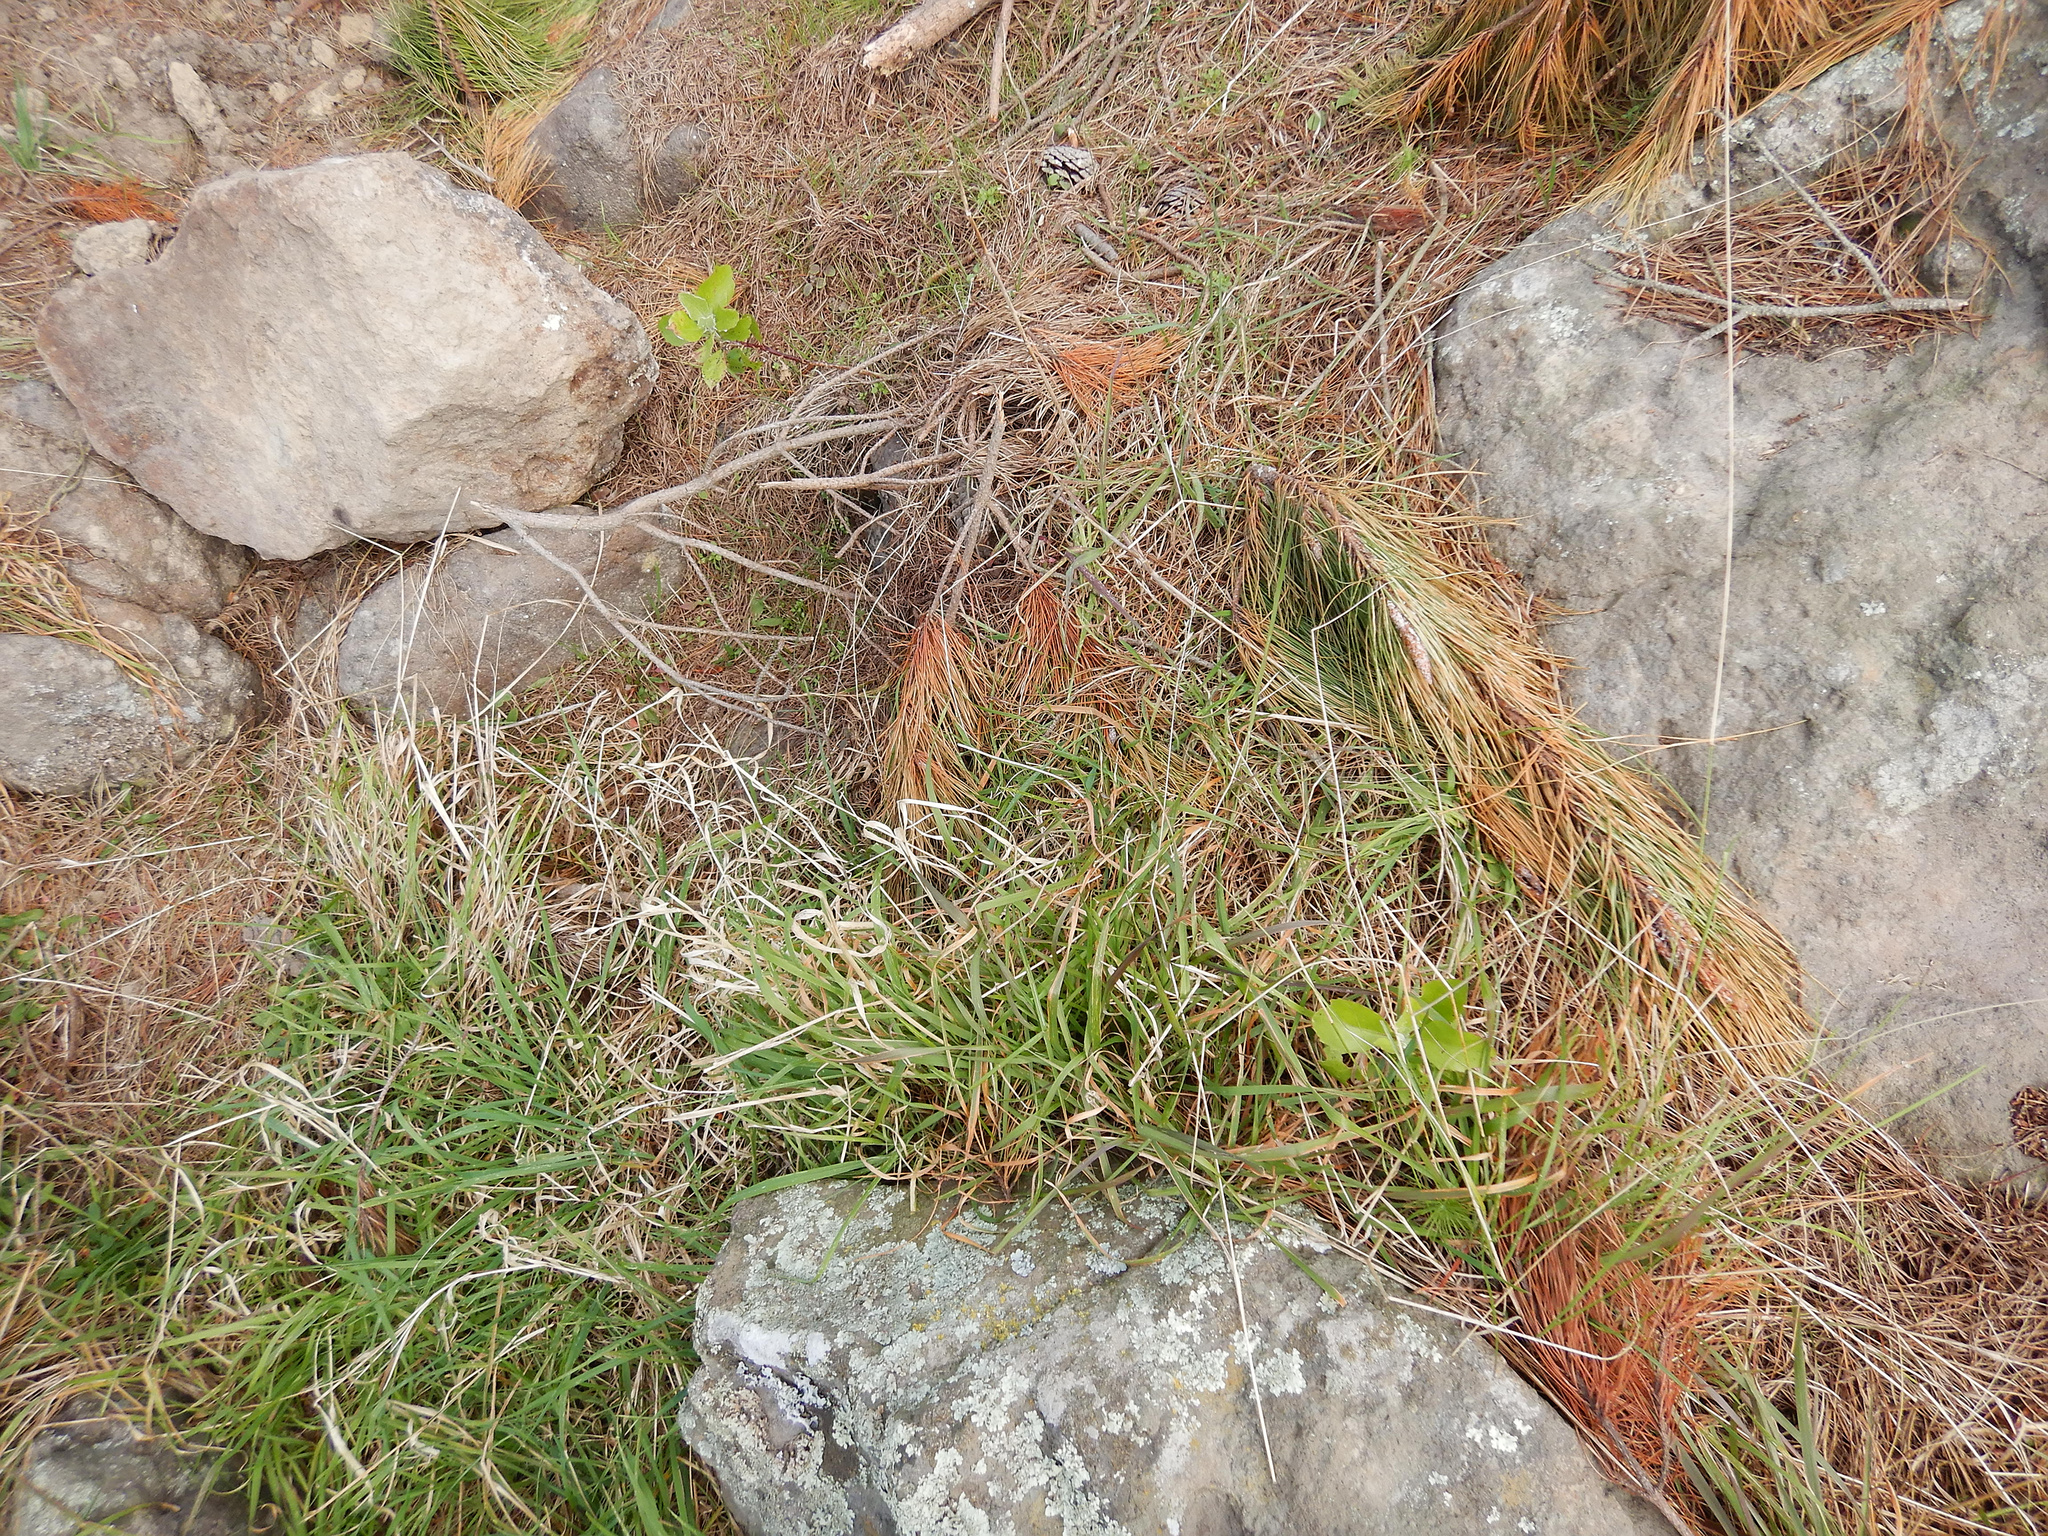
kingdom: Plantae
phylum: Tracheophyta
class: Magnoliopsida
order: Asterales
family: Asteraceae
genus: Osteospermum
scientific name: Osteospermum moniliferum
